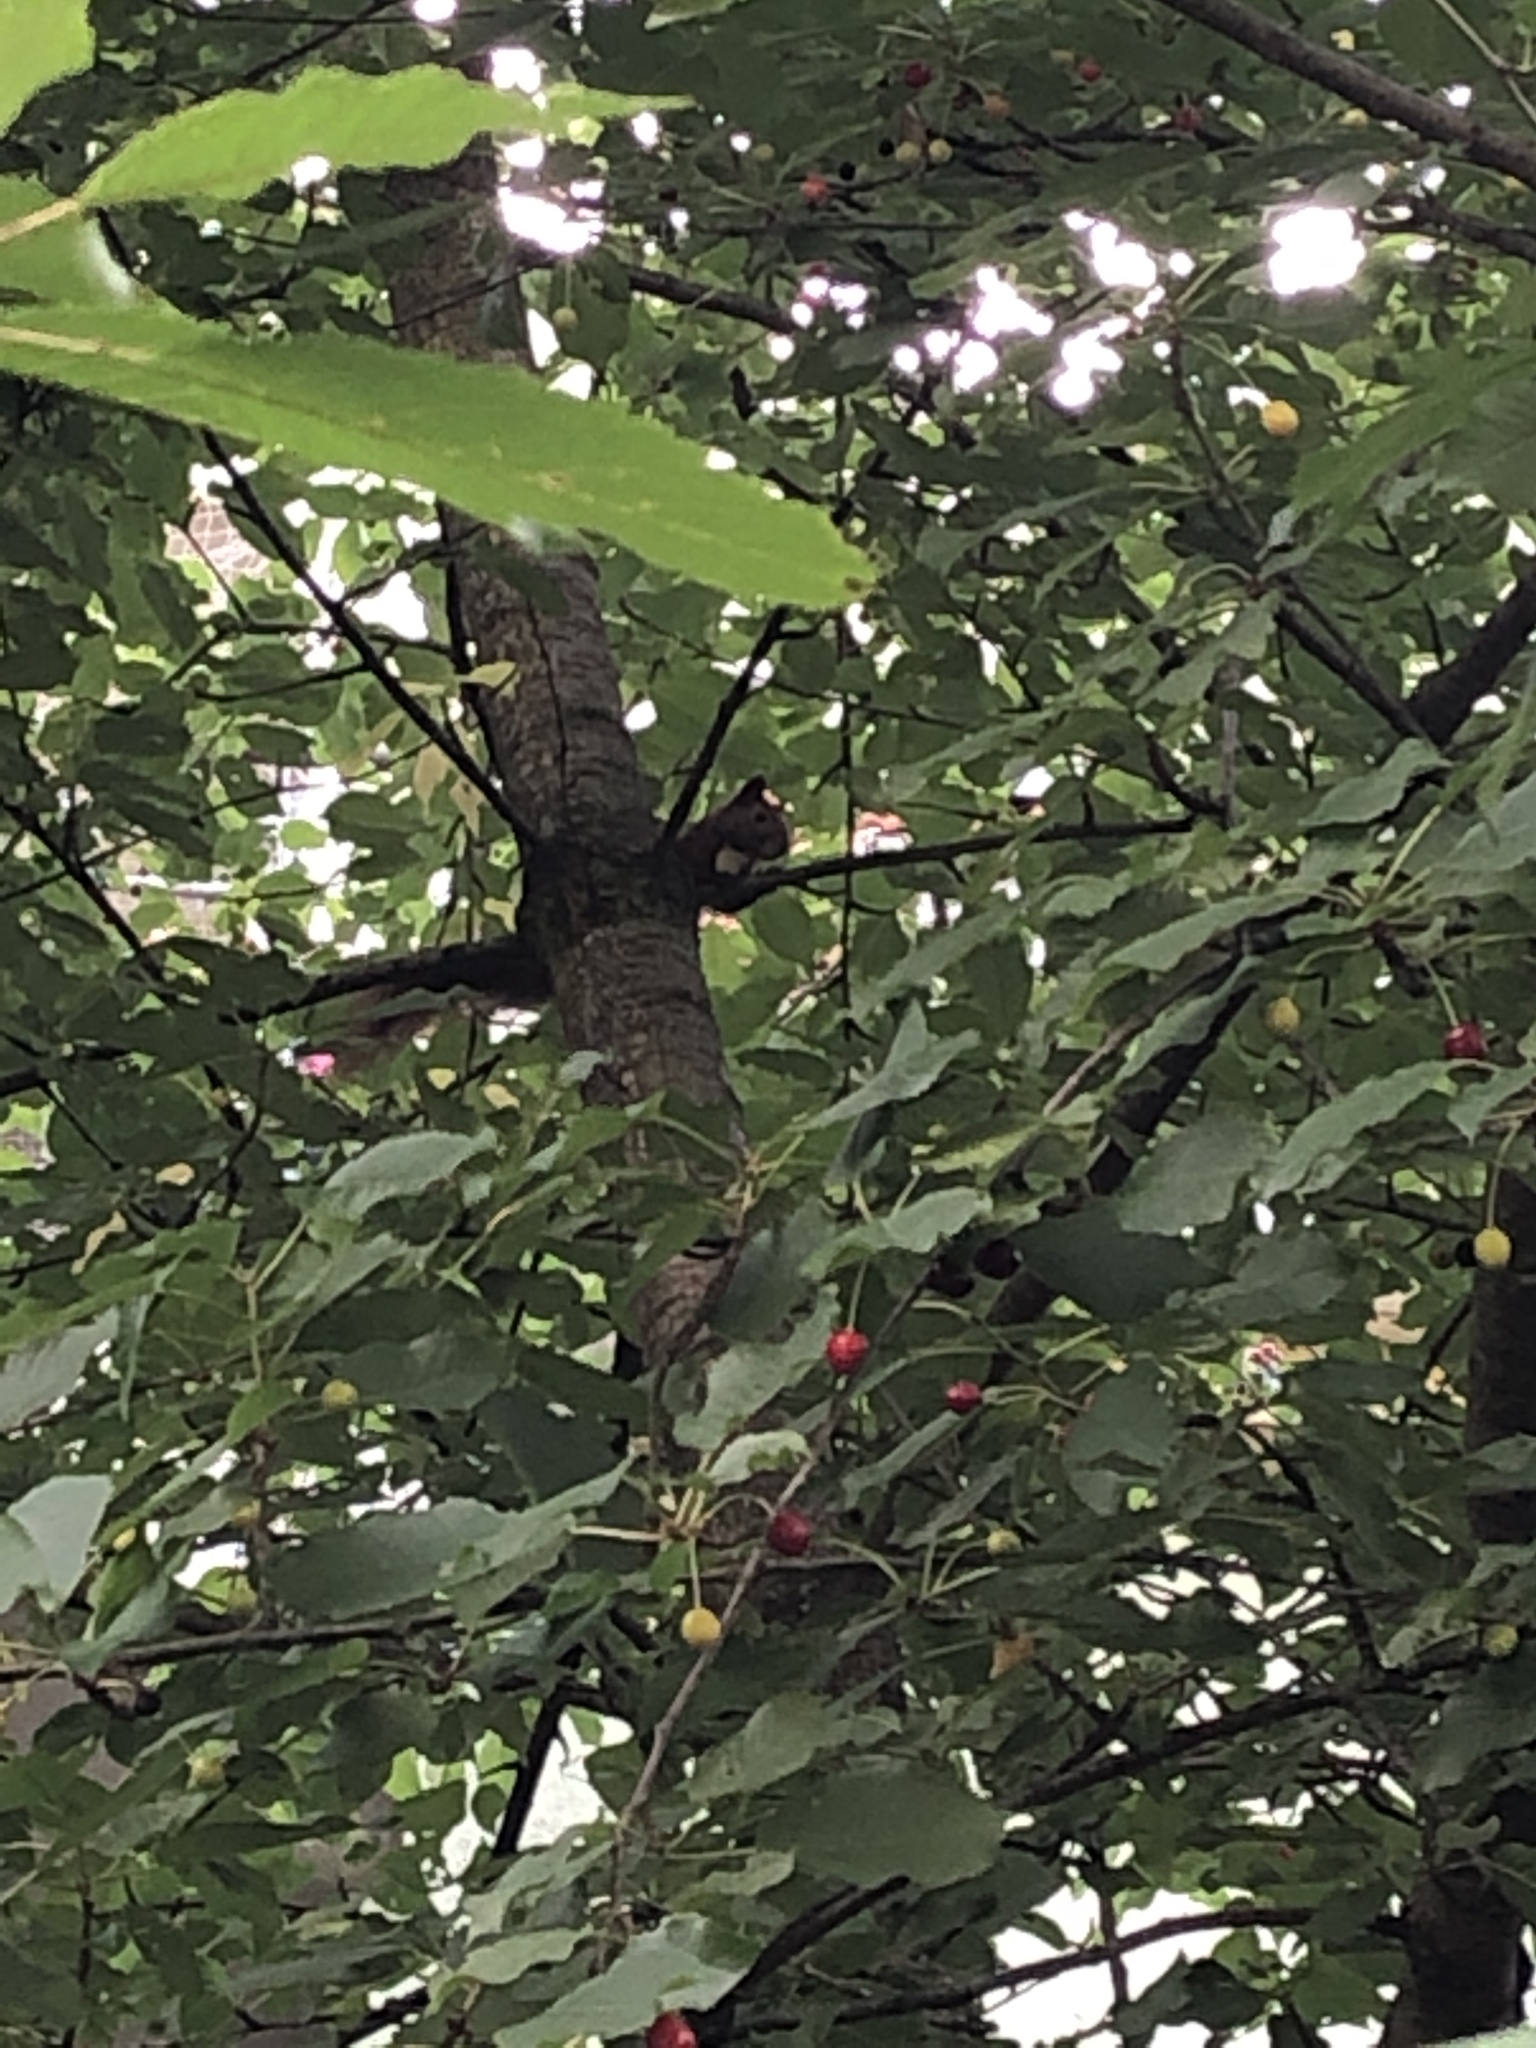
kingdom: Animalia
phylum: Chordata
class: Mammalia
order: Rodentia
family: Sciuridae
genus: Sciurus
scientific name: Sciurus vulgaris
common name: Eurasian red squirrel
